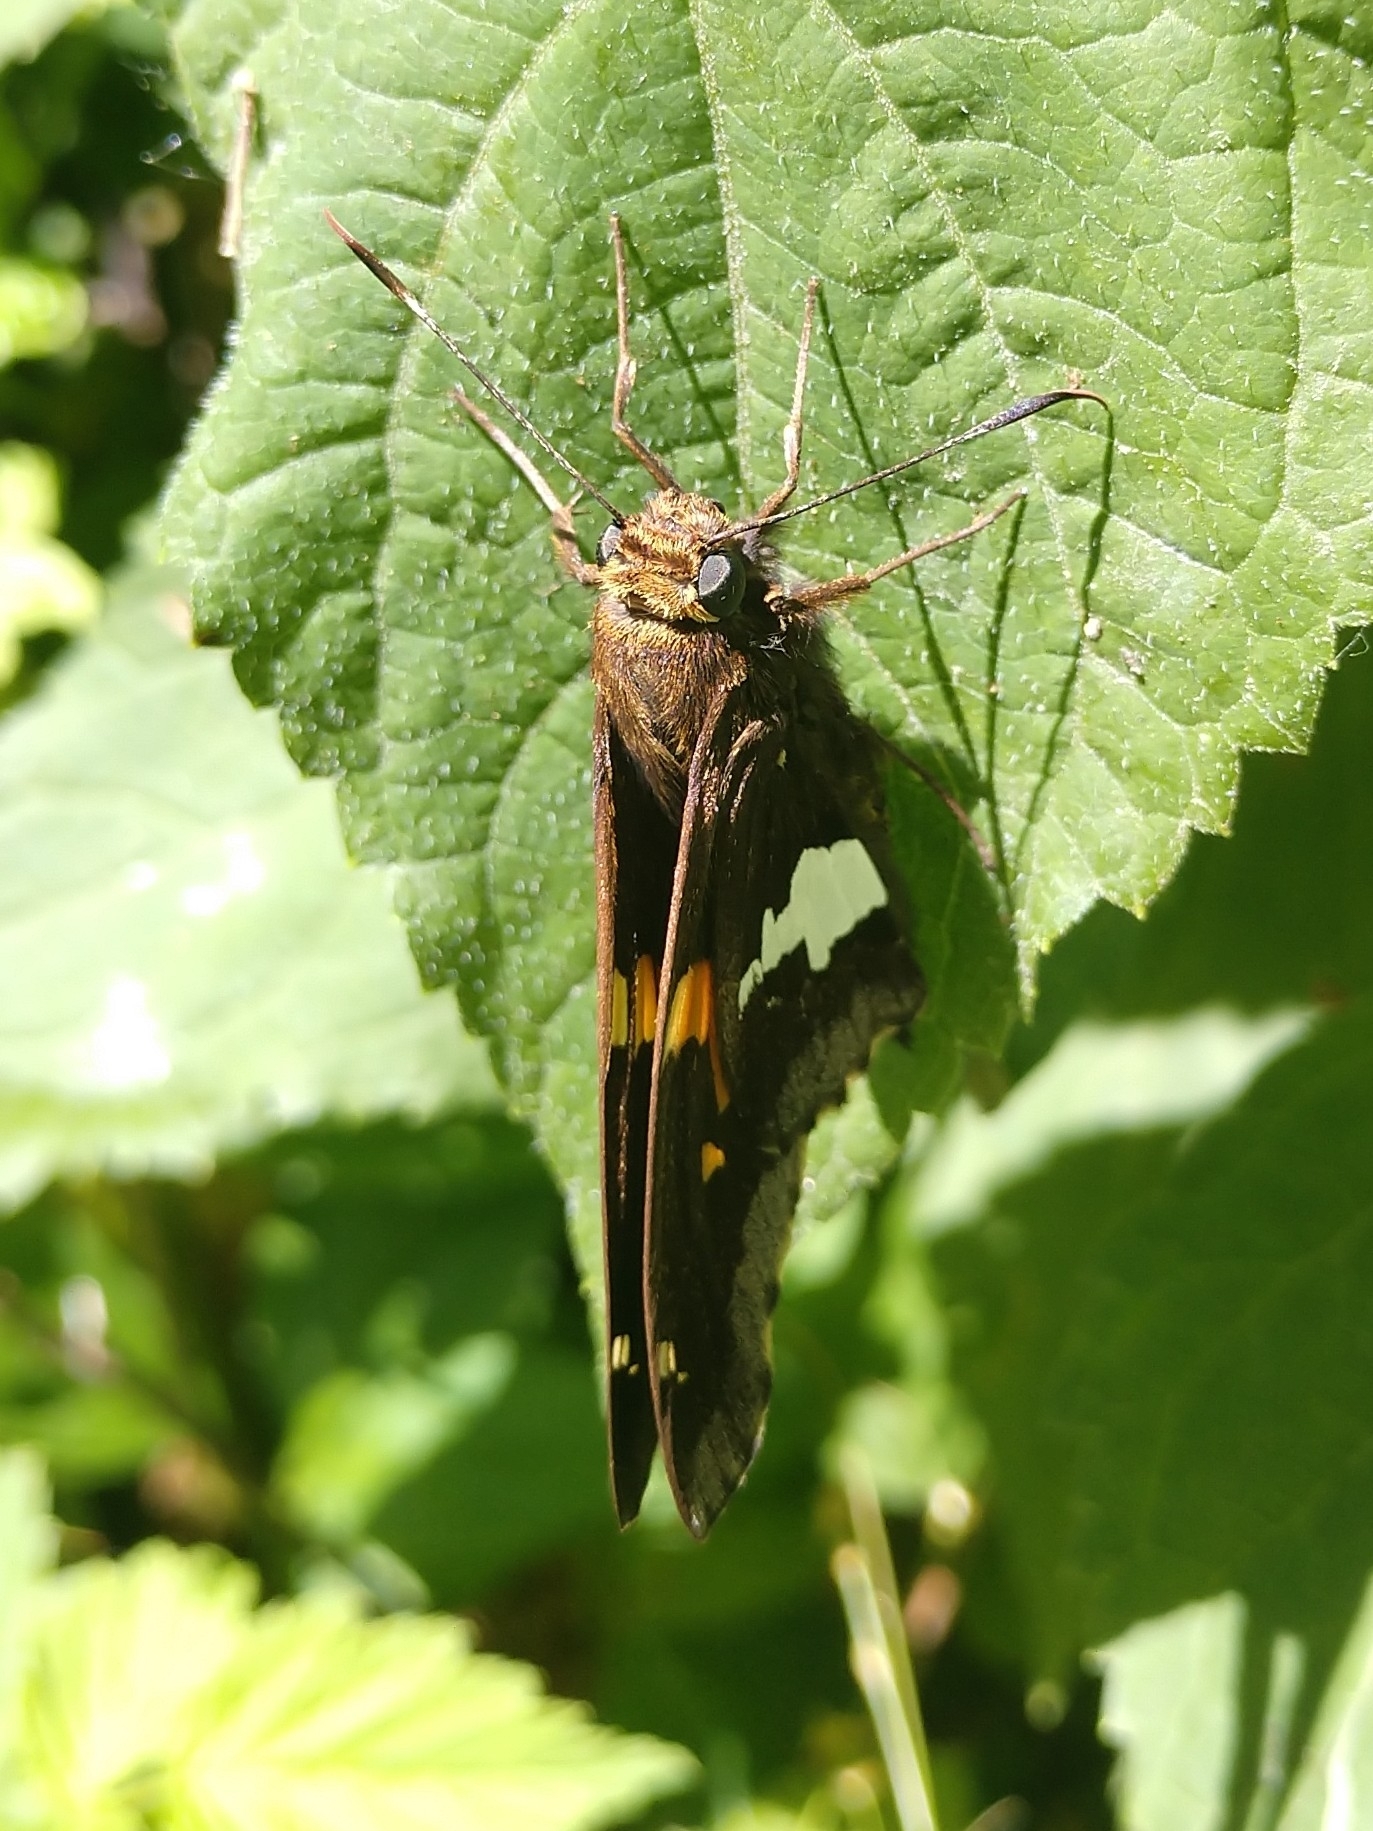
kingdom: Animalia
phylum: Arthropoda
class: Insecta
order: Lepidoptera
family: Hesperiidae
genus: Epargyreus
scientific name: Epargyreus clarus
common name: Silver-spotted skipper
